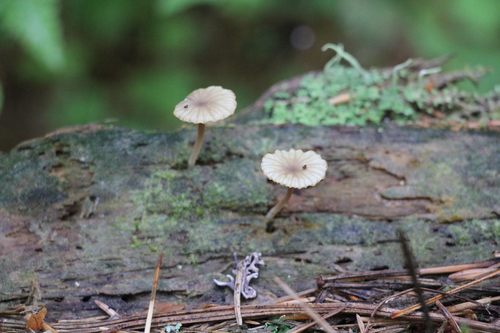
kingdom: Fungi
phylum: Basidiomycota
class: Agaricomycetes
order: Agaricales
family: Hygrophoraceae
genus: Lichenomphalia
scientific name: Lichenomphalia umbellifera
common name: Heath navel
